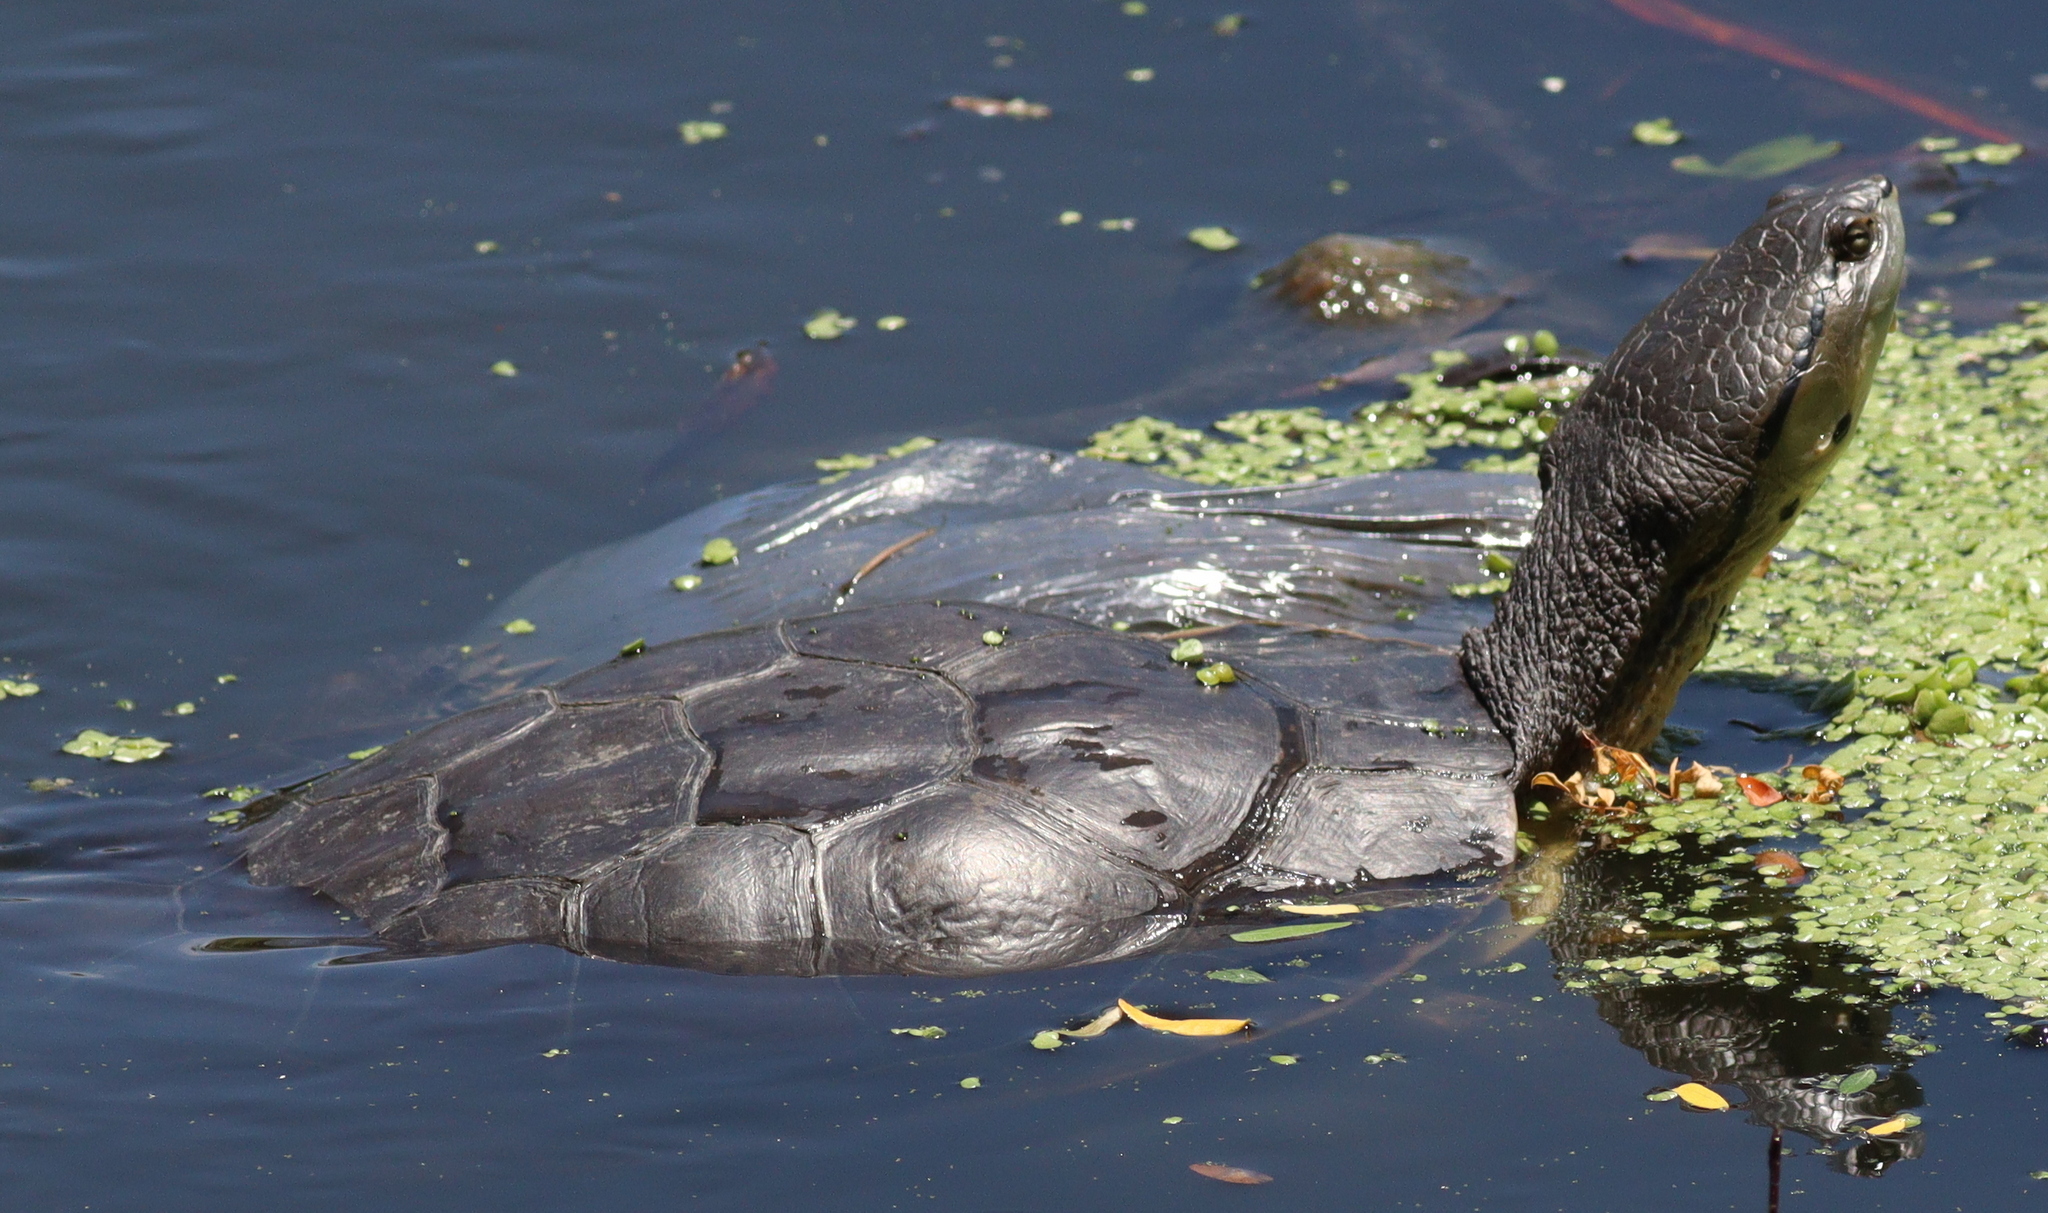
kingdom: Animalia
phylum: Chordata
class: Testudines
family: Chelidae
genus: Phrynops
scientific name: Phrynops hilarii
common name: Side-necked turtle of saint hillaire
